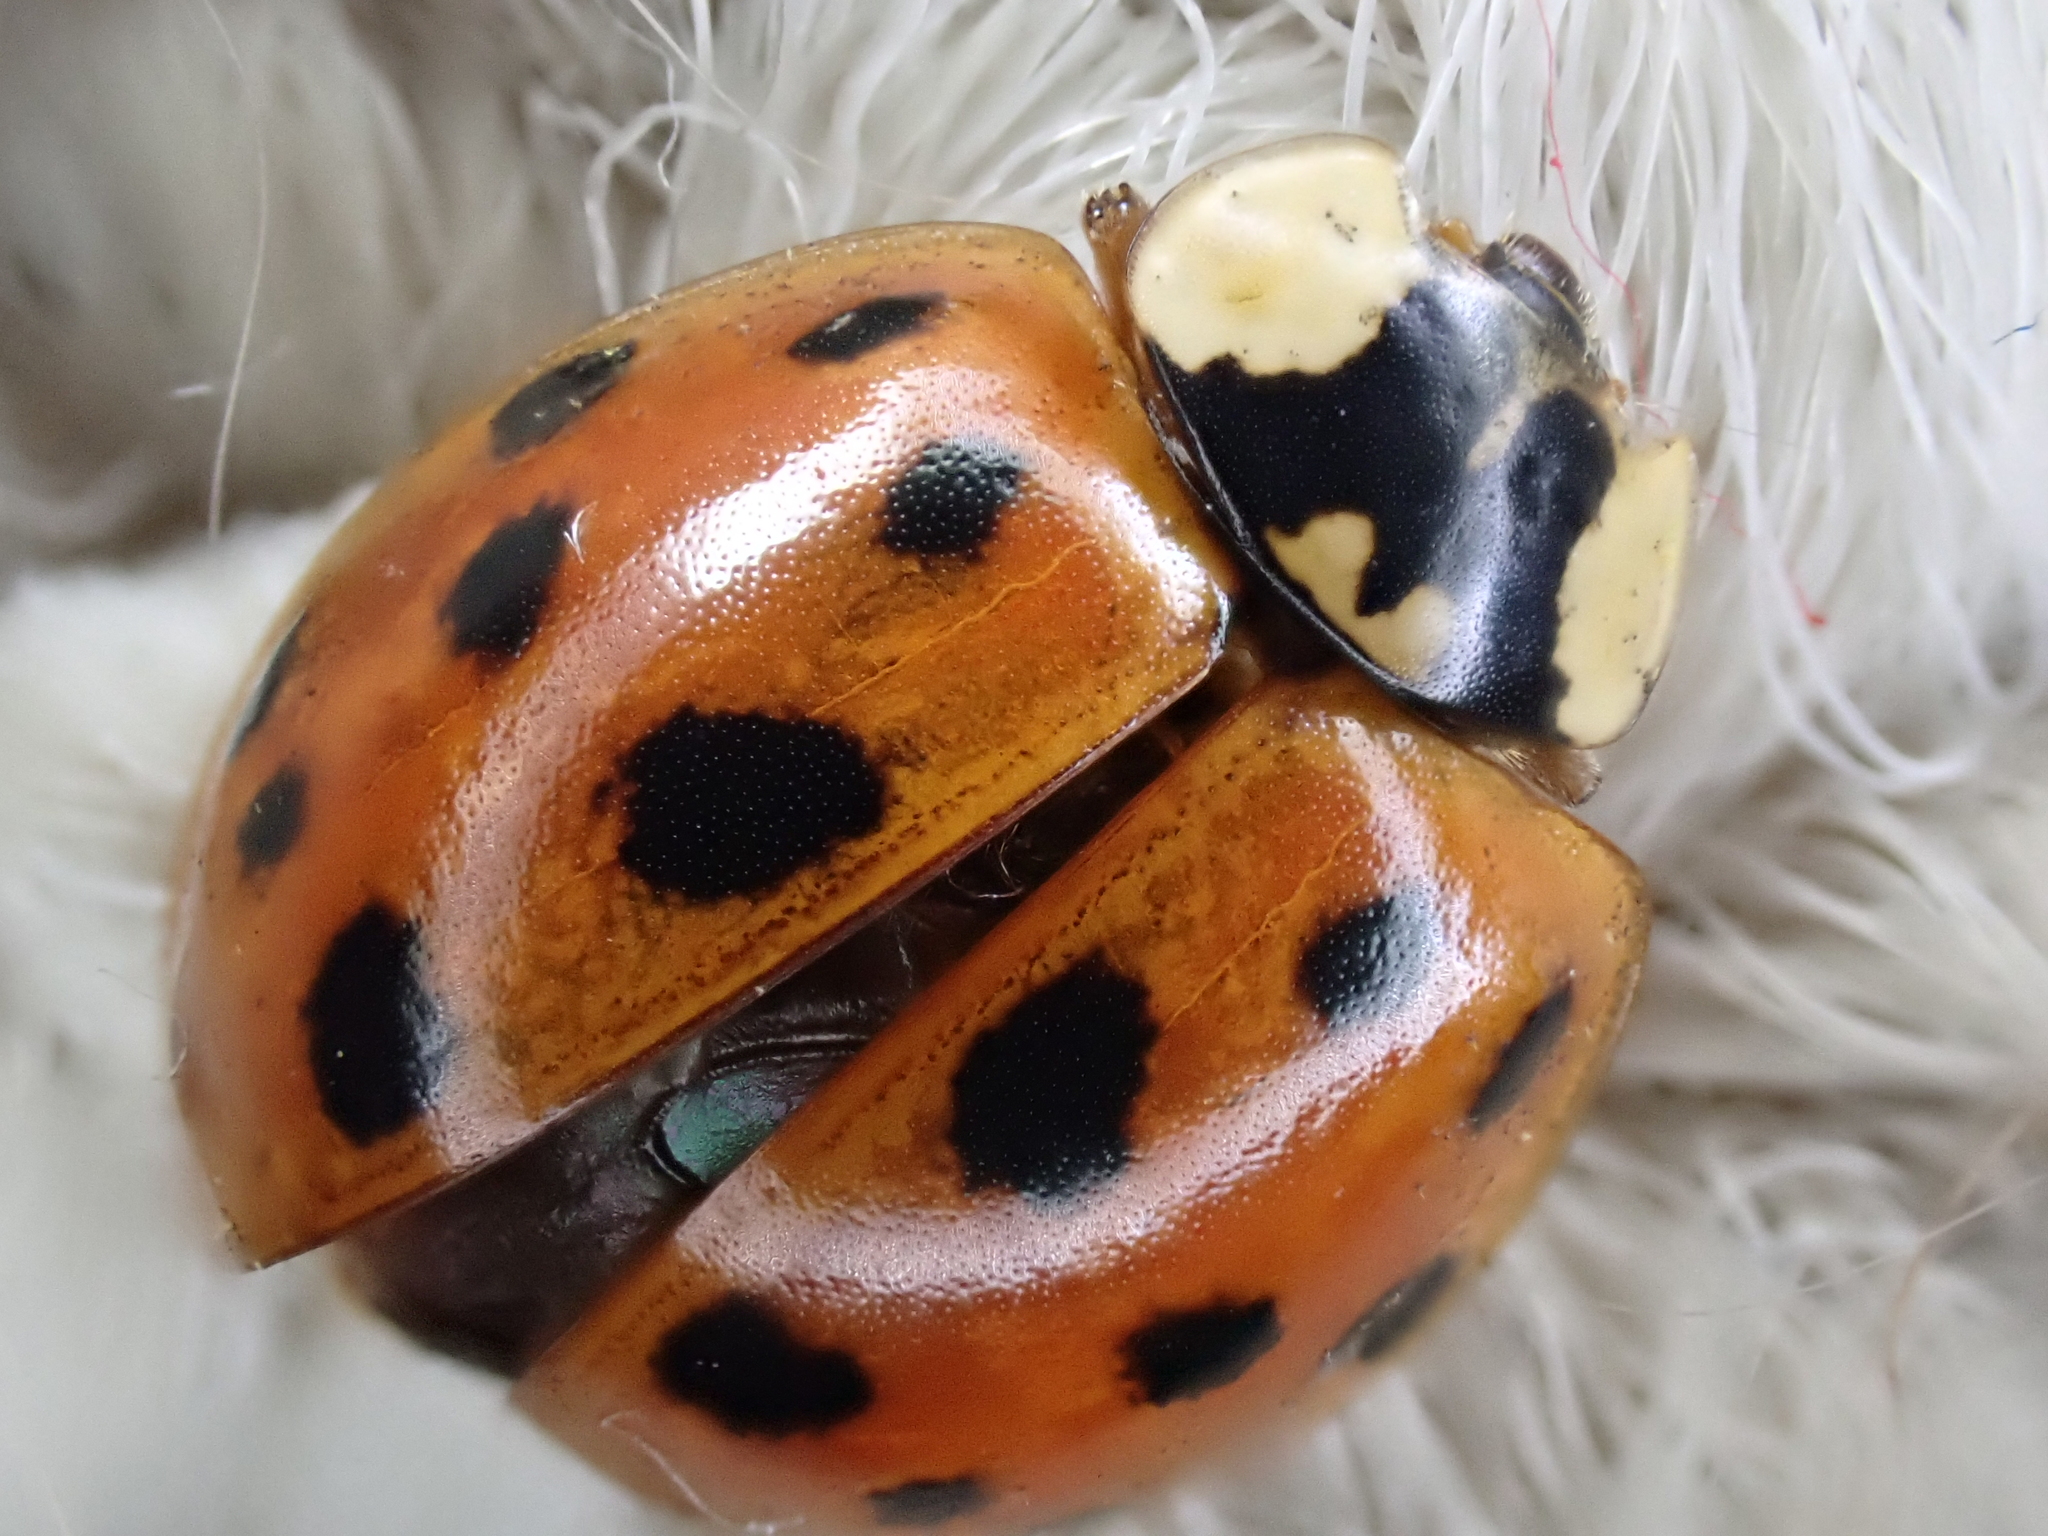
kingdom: Animalia
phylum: Arthropoda
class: Insecta
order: Coleoptera
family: Coccinellidae
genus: Harmonia
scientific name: Harmonia axyridis
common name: Harlequin ladybird
